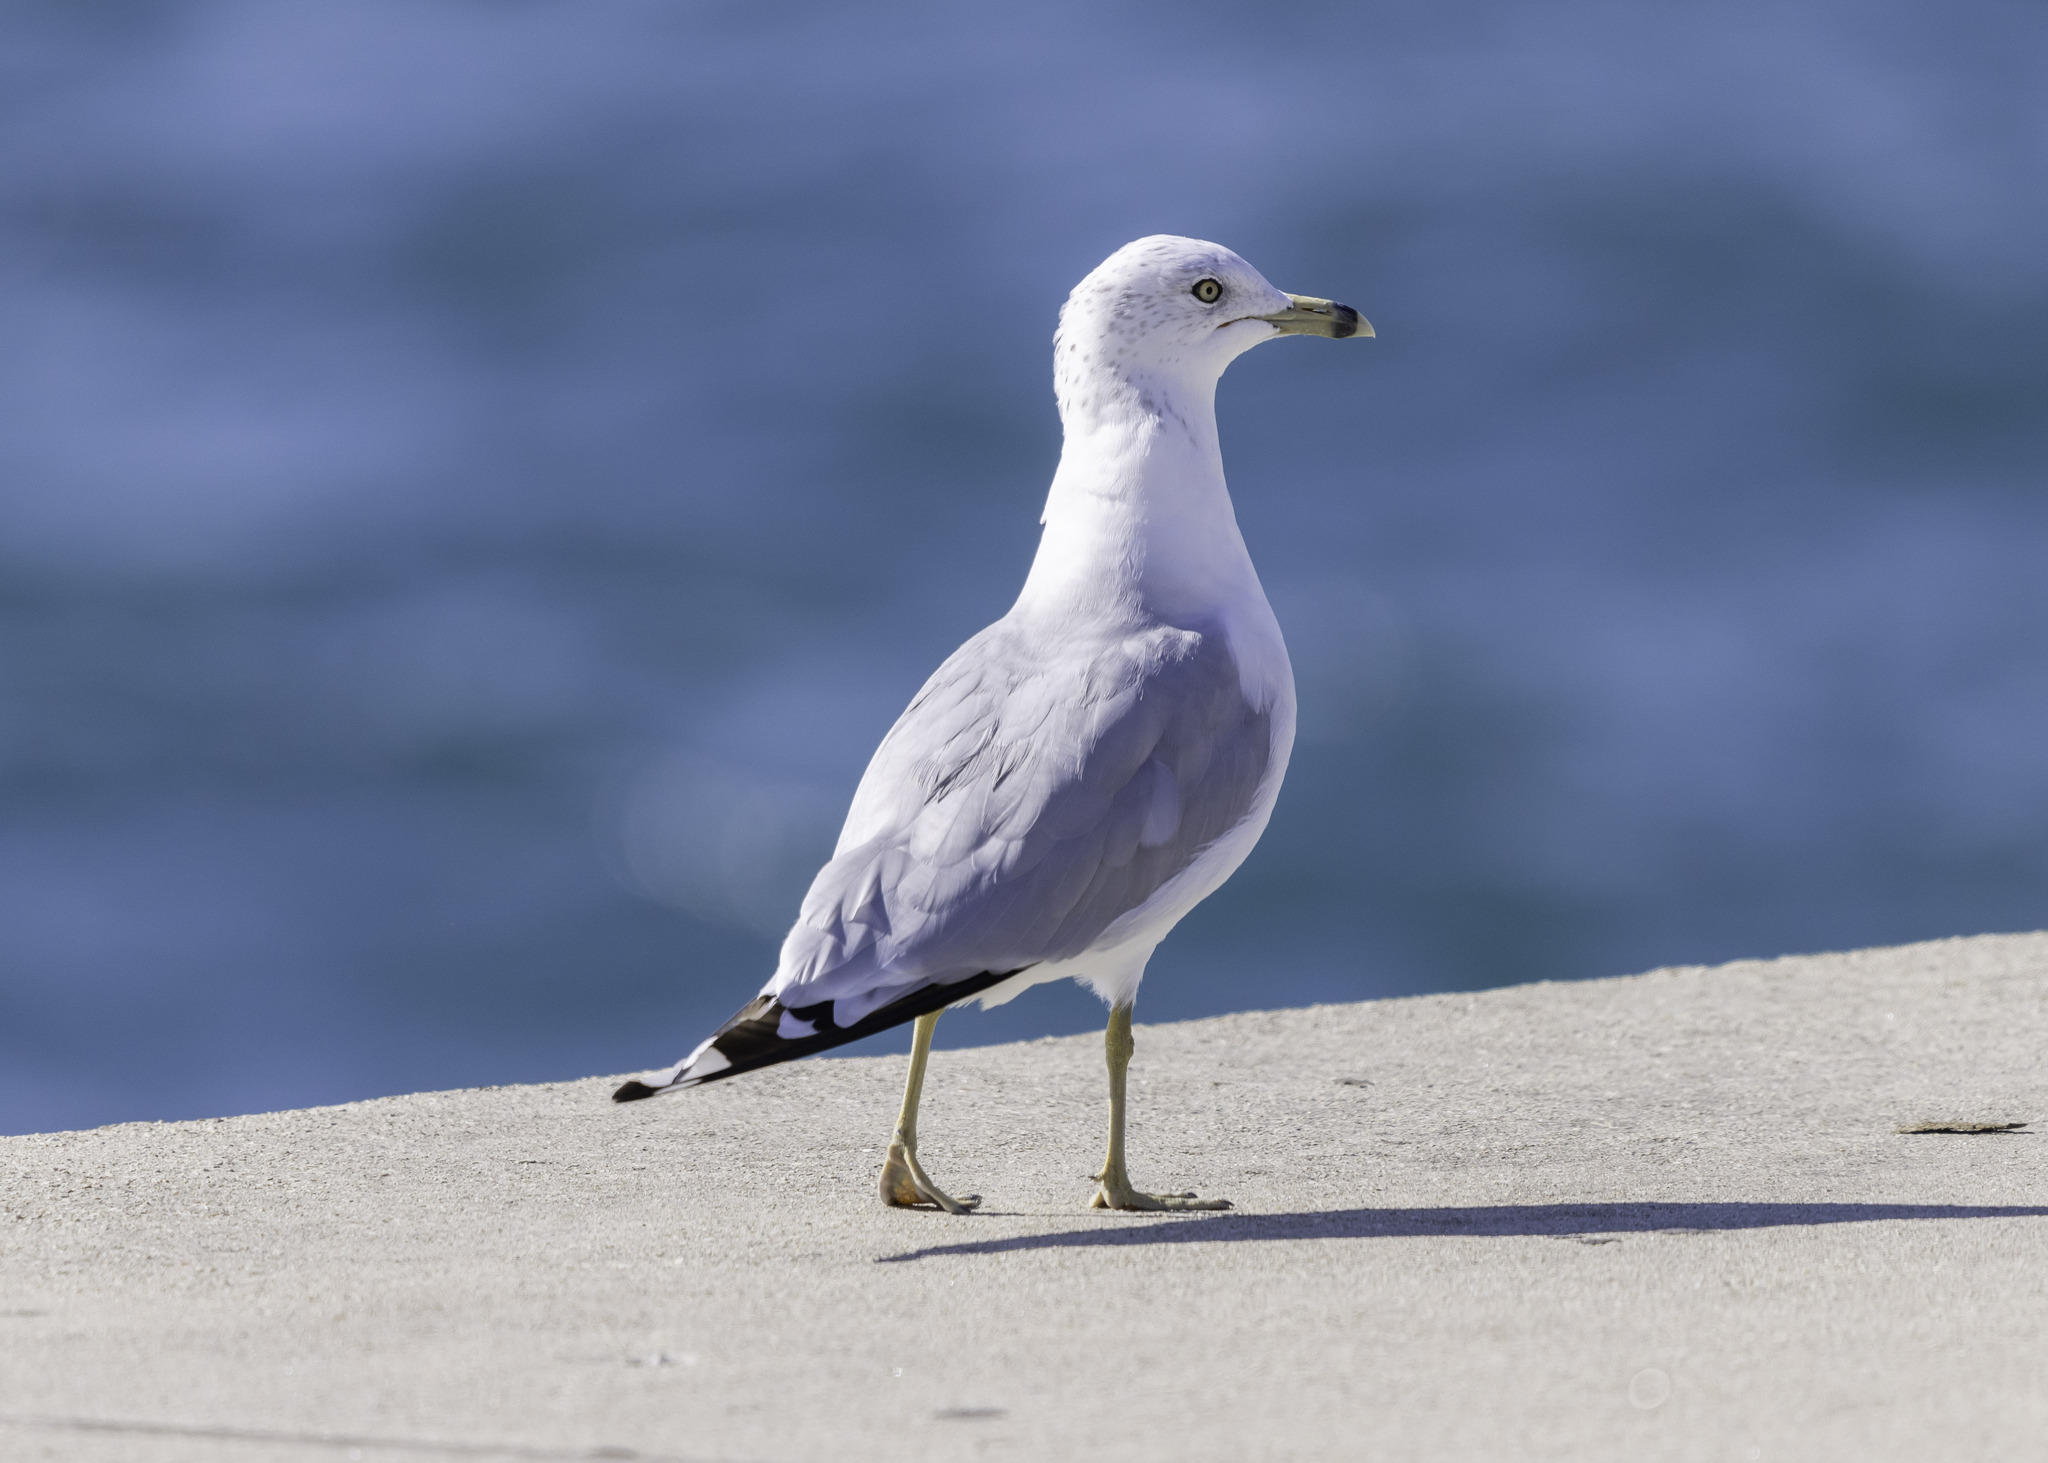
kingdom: Animalia
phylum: Chordata
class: Aves
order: Charadriiformes
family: Laridae
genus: Larus
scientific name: Larus delawarensis
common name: Ring-billed gull
